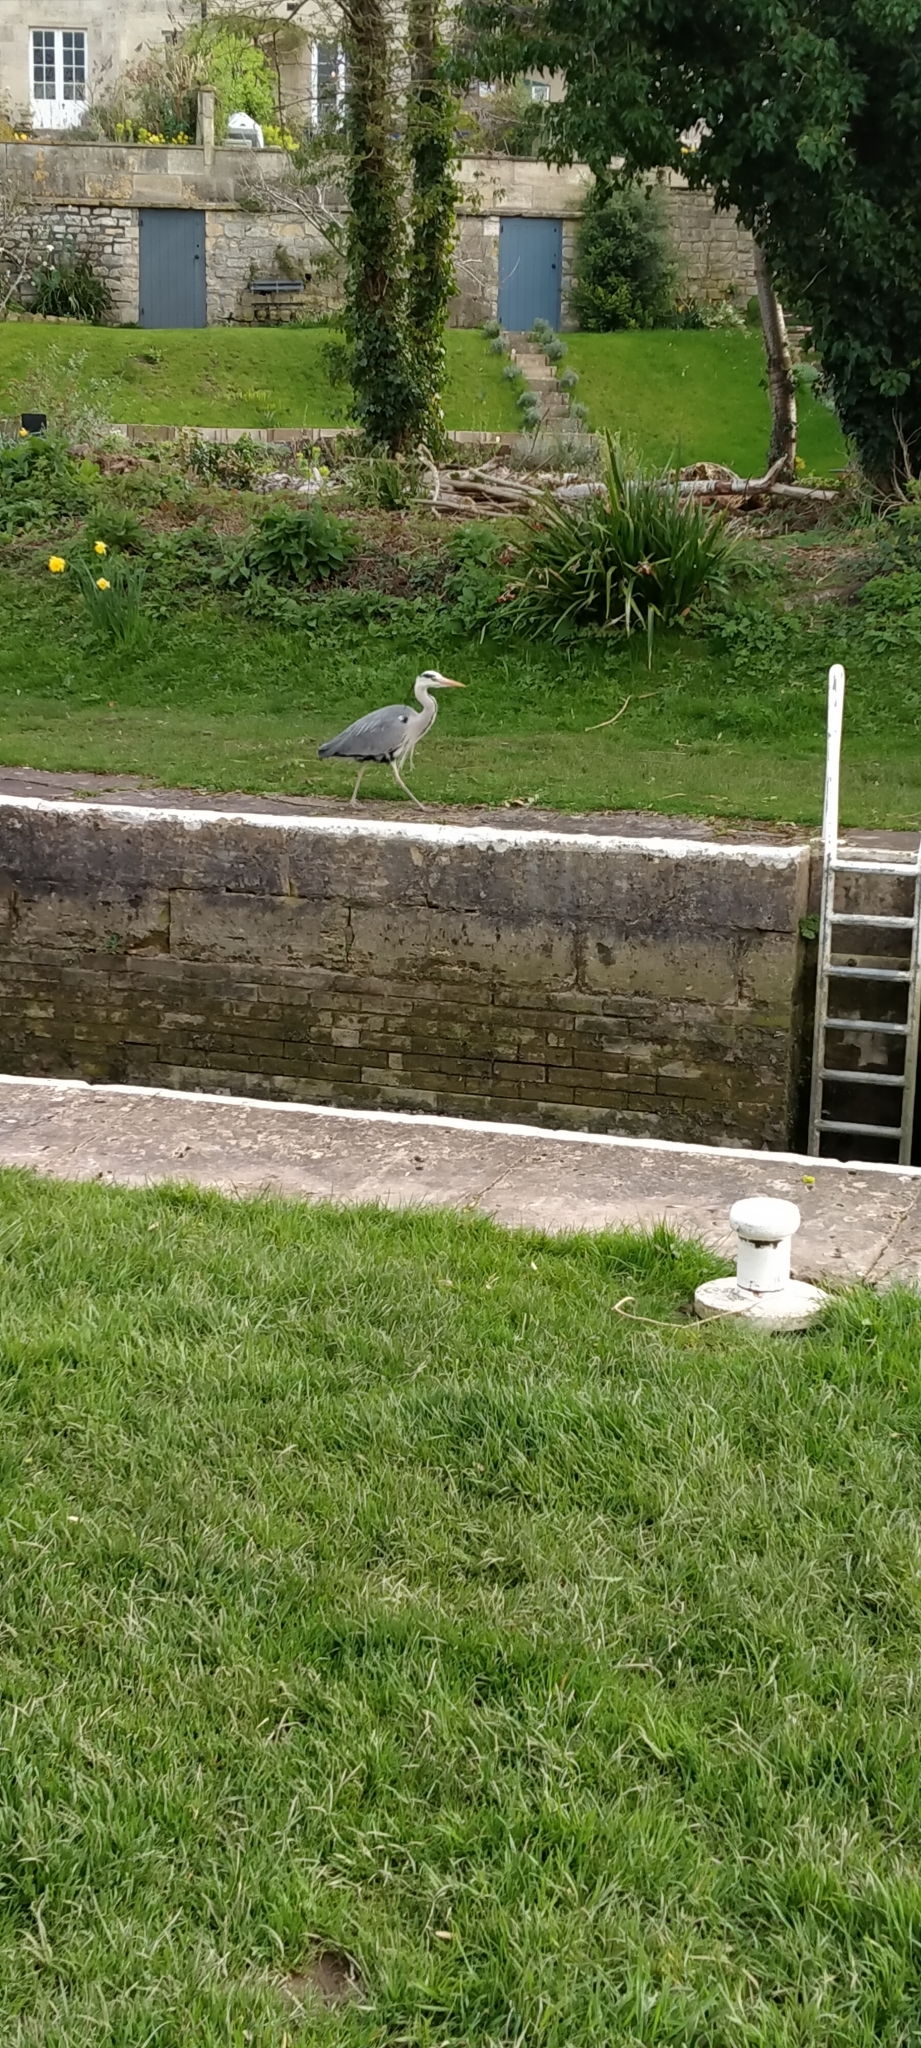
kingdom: Animalia
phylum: Chordata
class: Aves
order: Pelecaniformes
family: Ardeidae
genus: Ardea
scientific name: Ardea cinerea
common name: Grey heron
